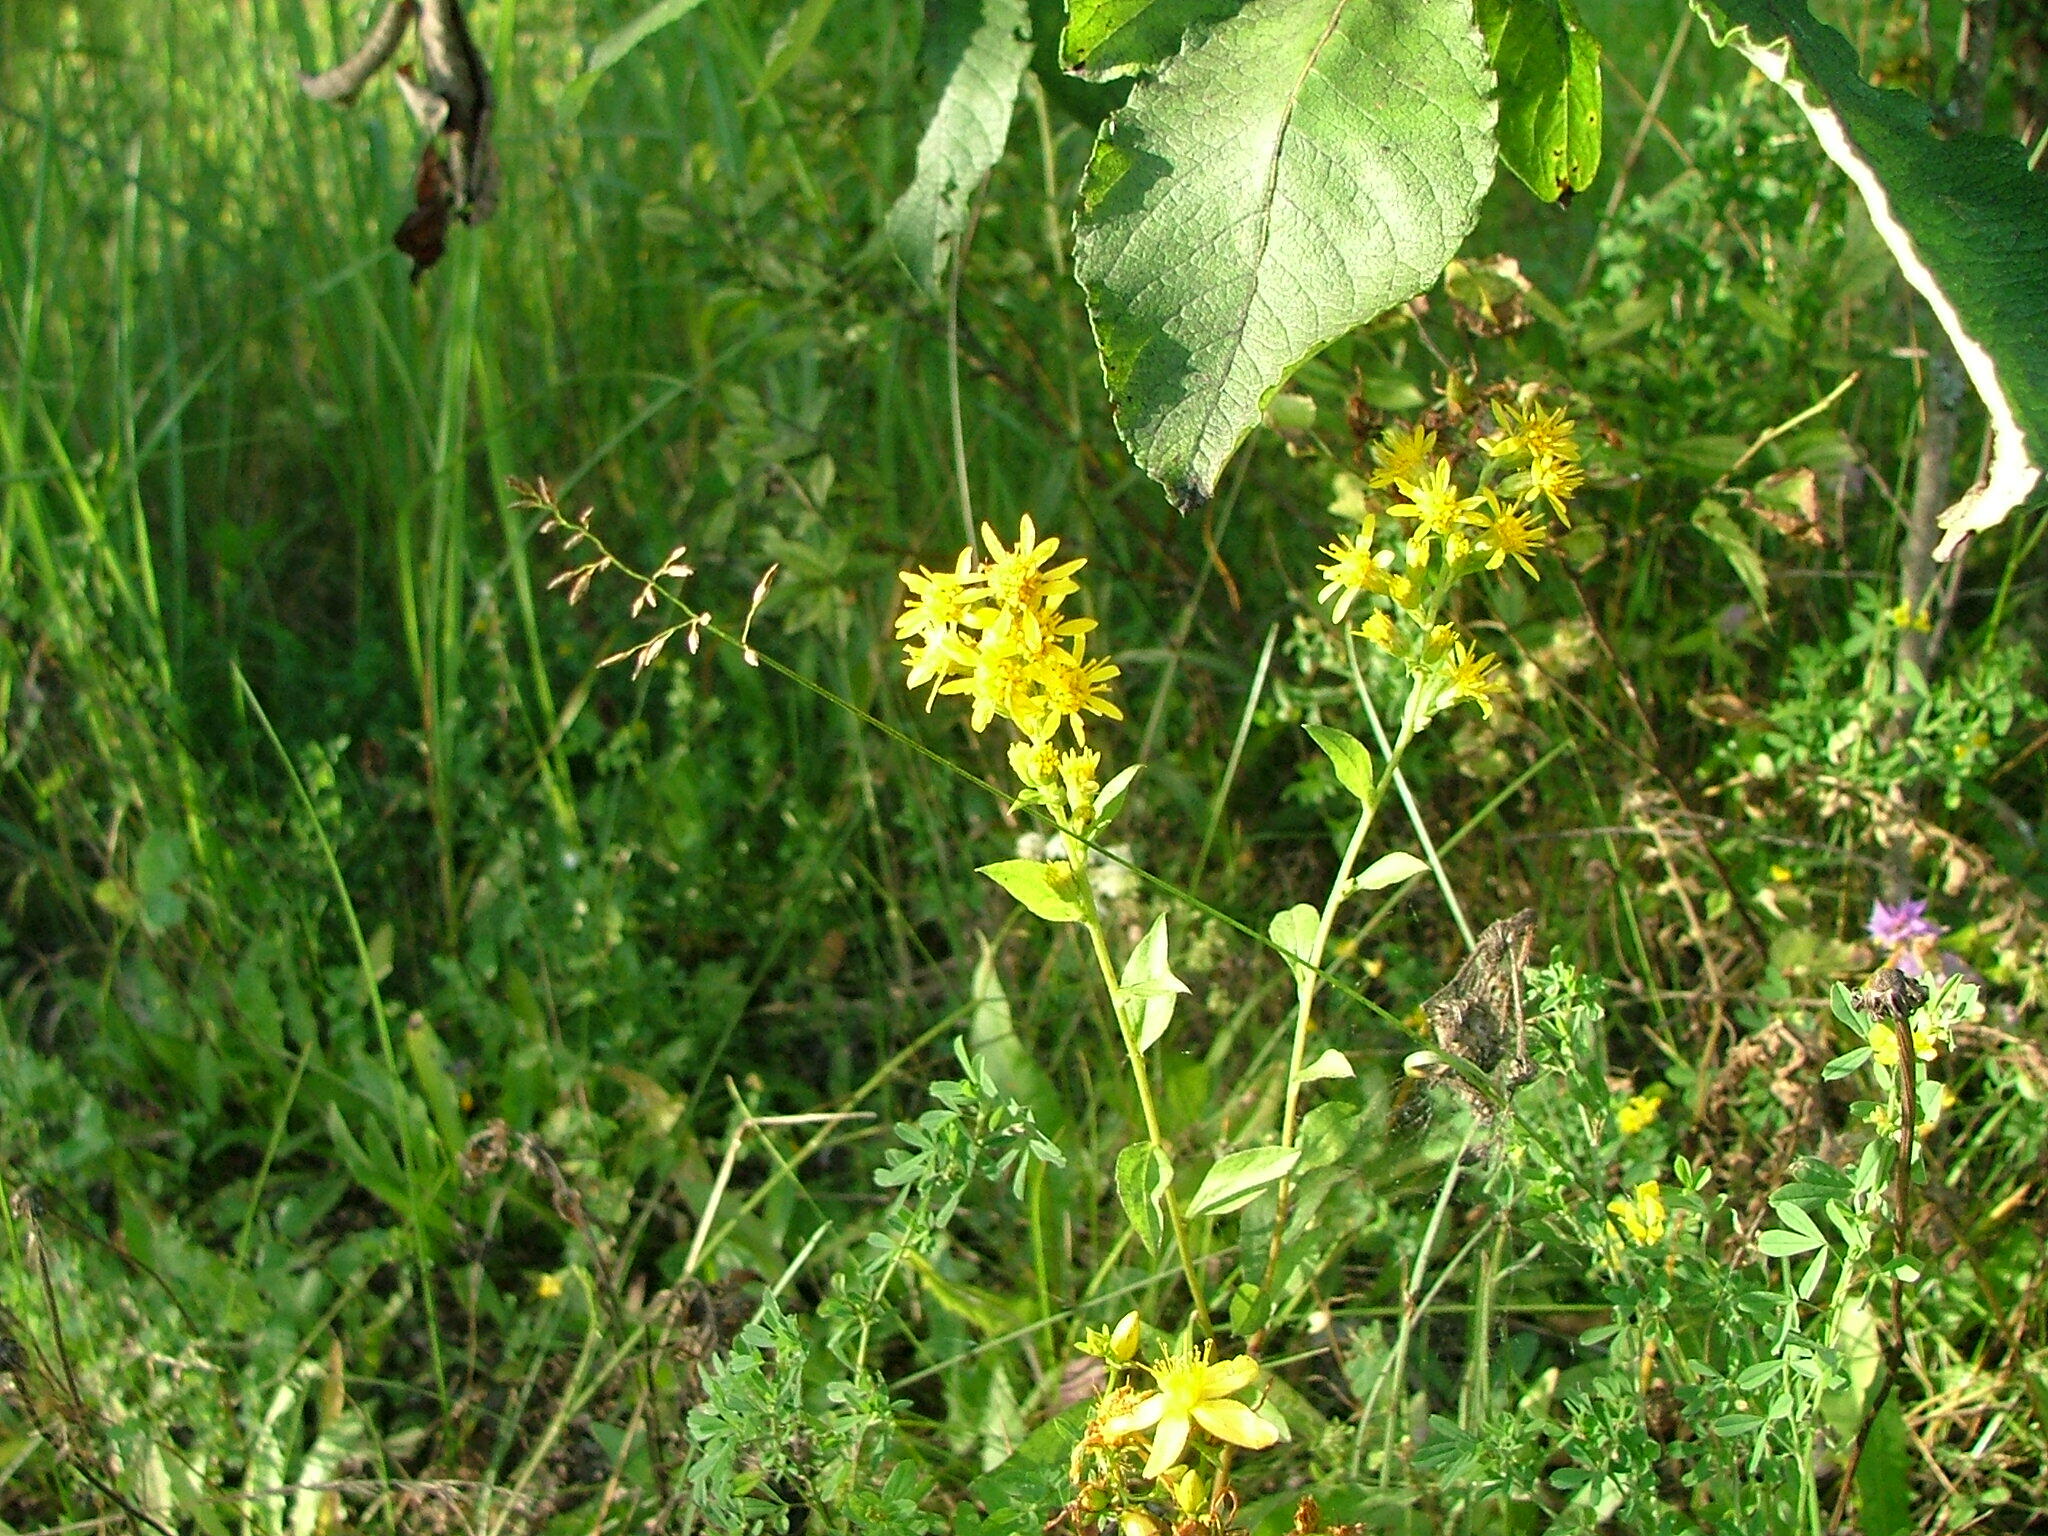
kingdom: Plantae
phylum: Tracheophyta
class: Magnoliopsida
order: Asterales
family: Asteraceae
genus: Solidago
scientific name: Solidago virgaurea
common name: Goldenrod
